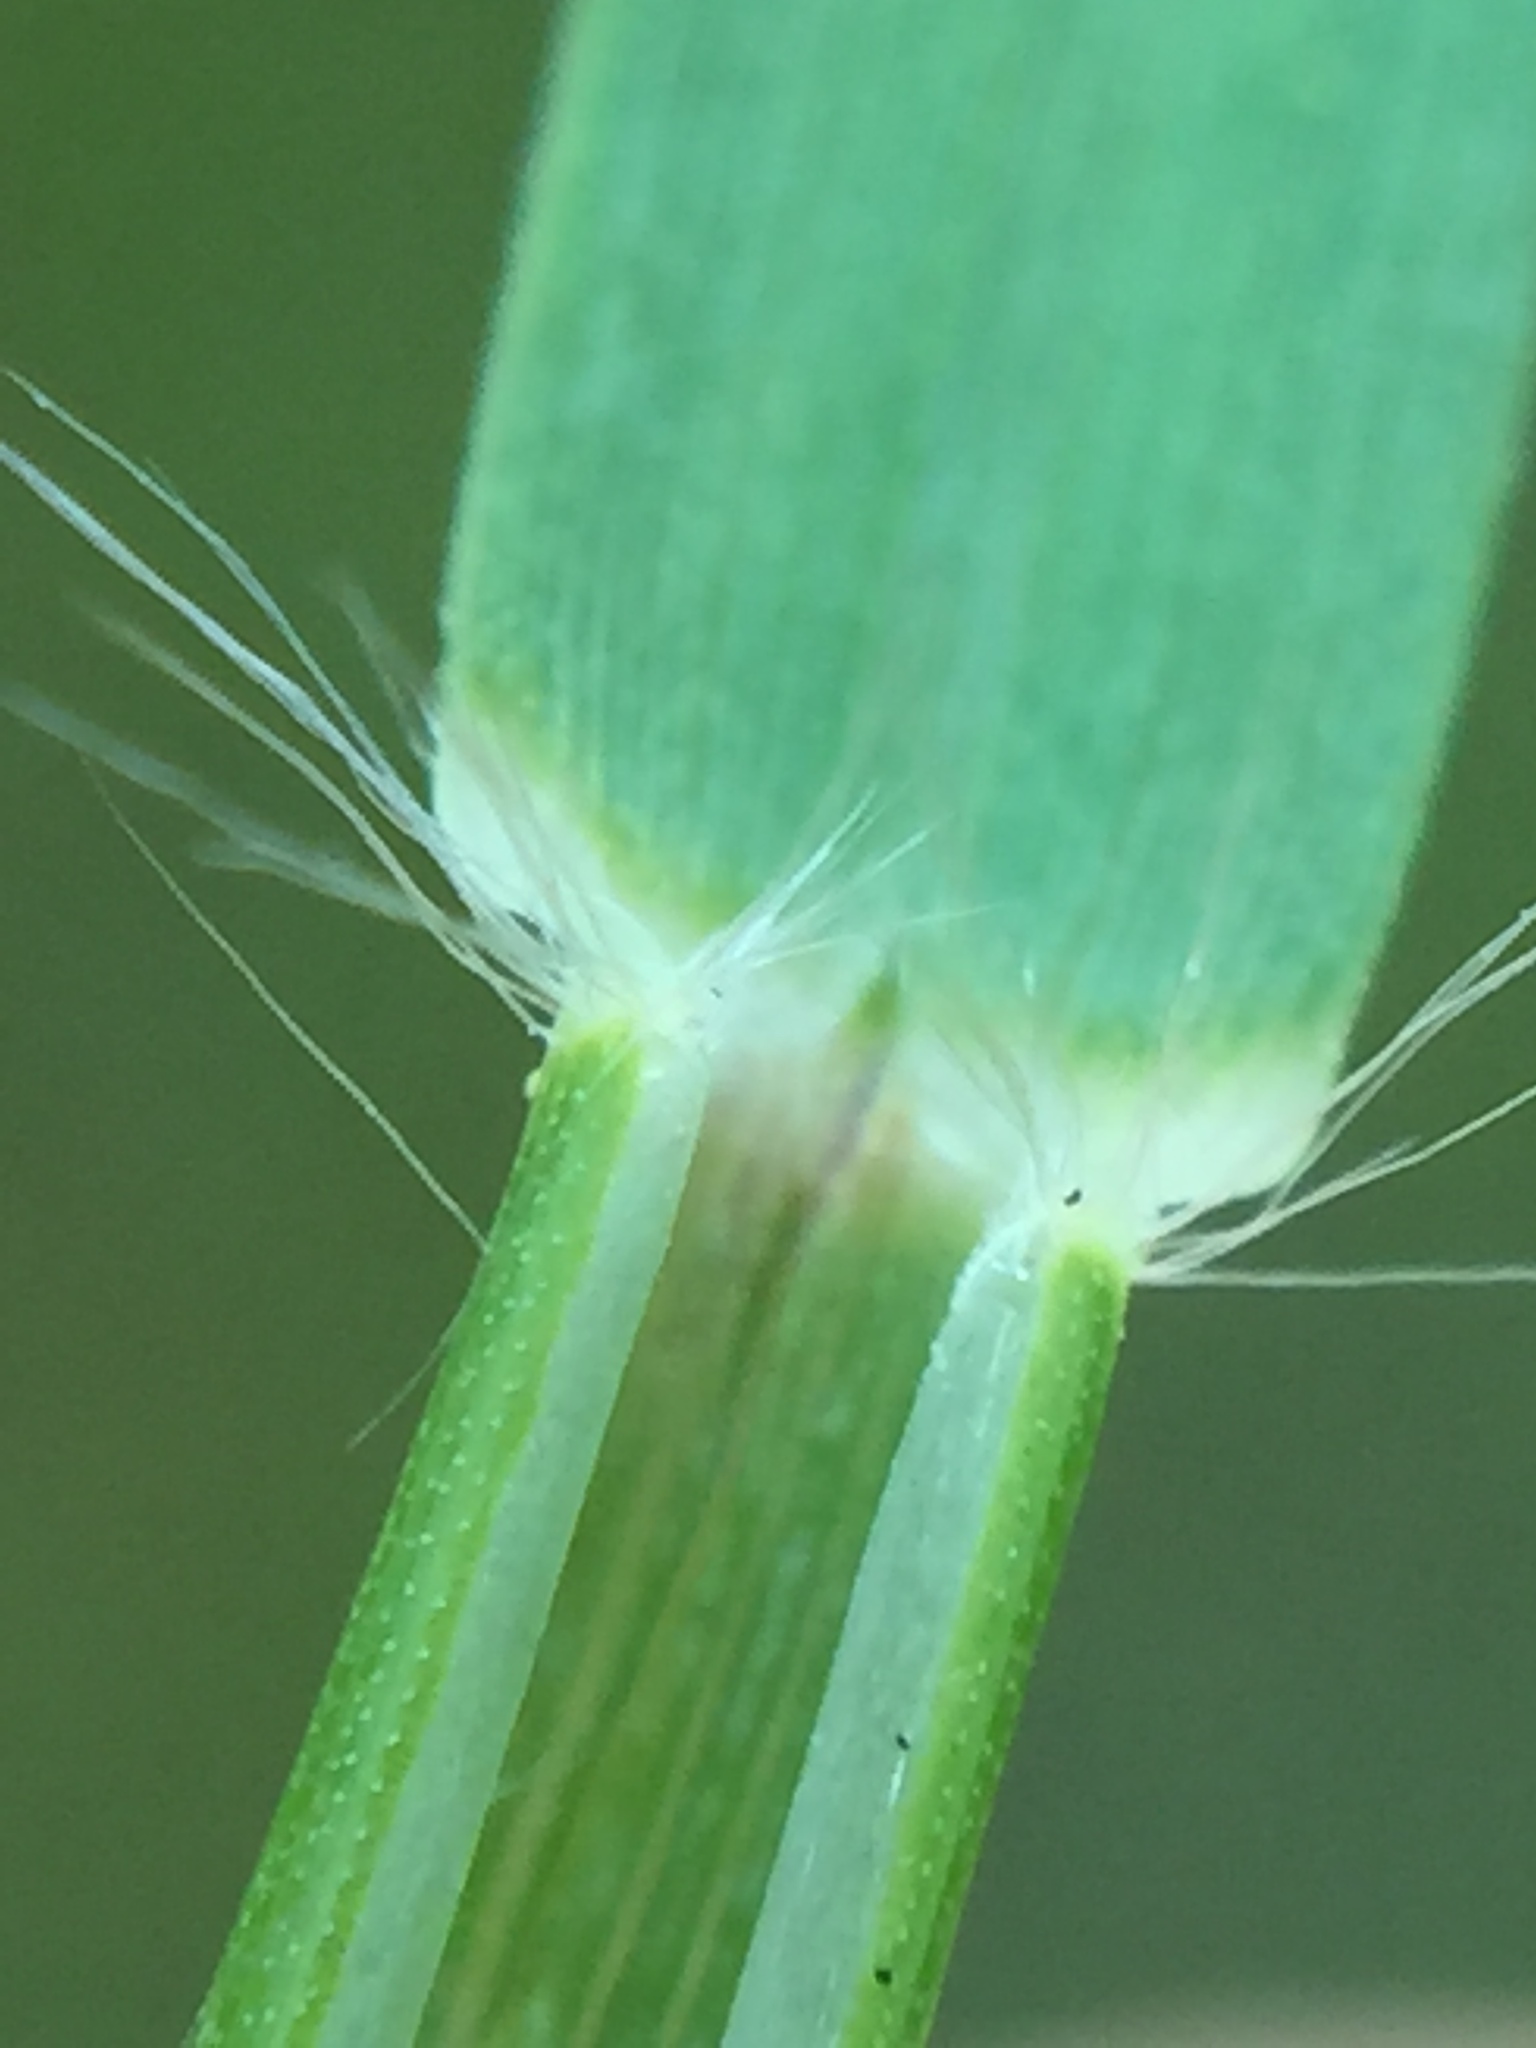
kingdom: Plantae
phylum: Tracheophyta
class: Liliopsida
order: Poales
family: Poaceae
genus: Danthonia
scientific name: Danthonia decumbens
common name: Common heathgrass
